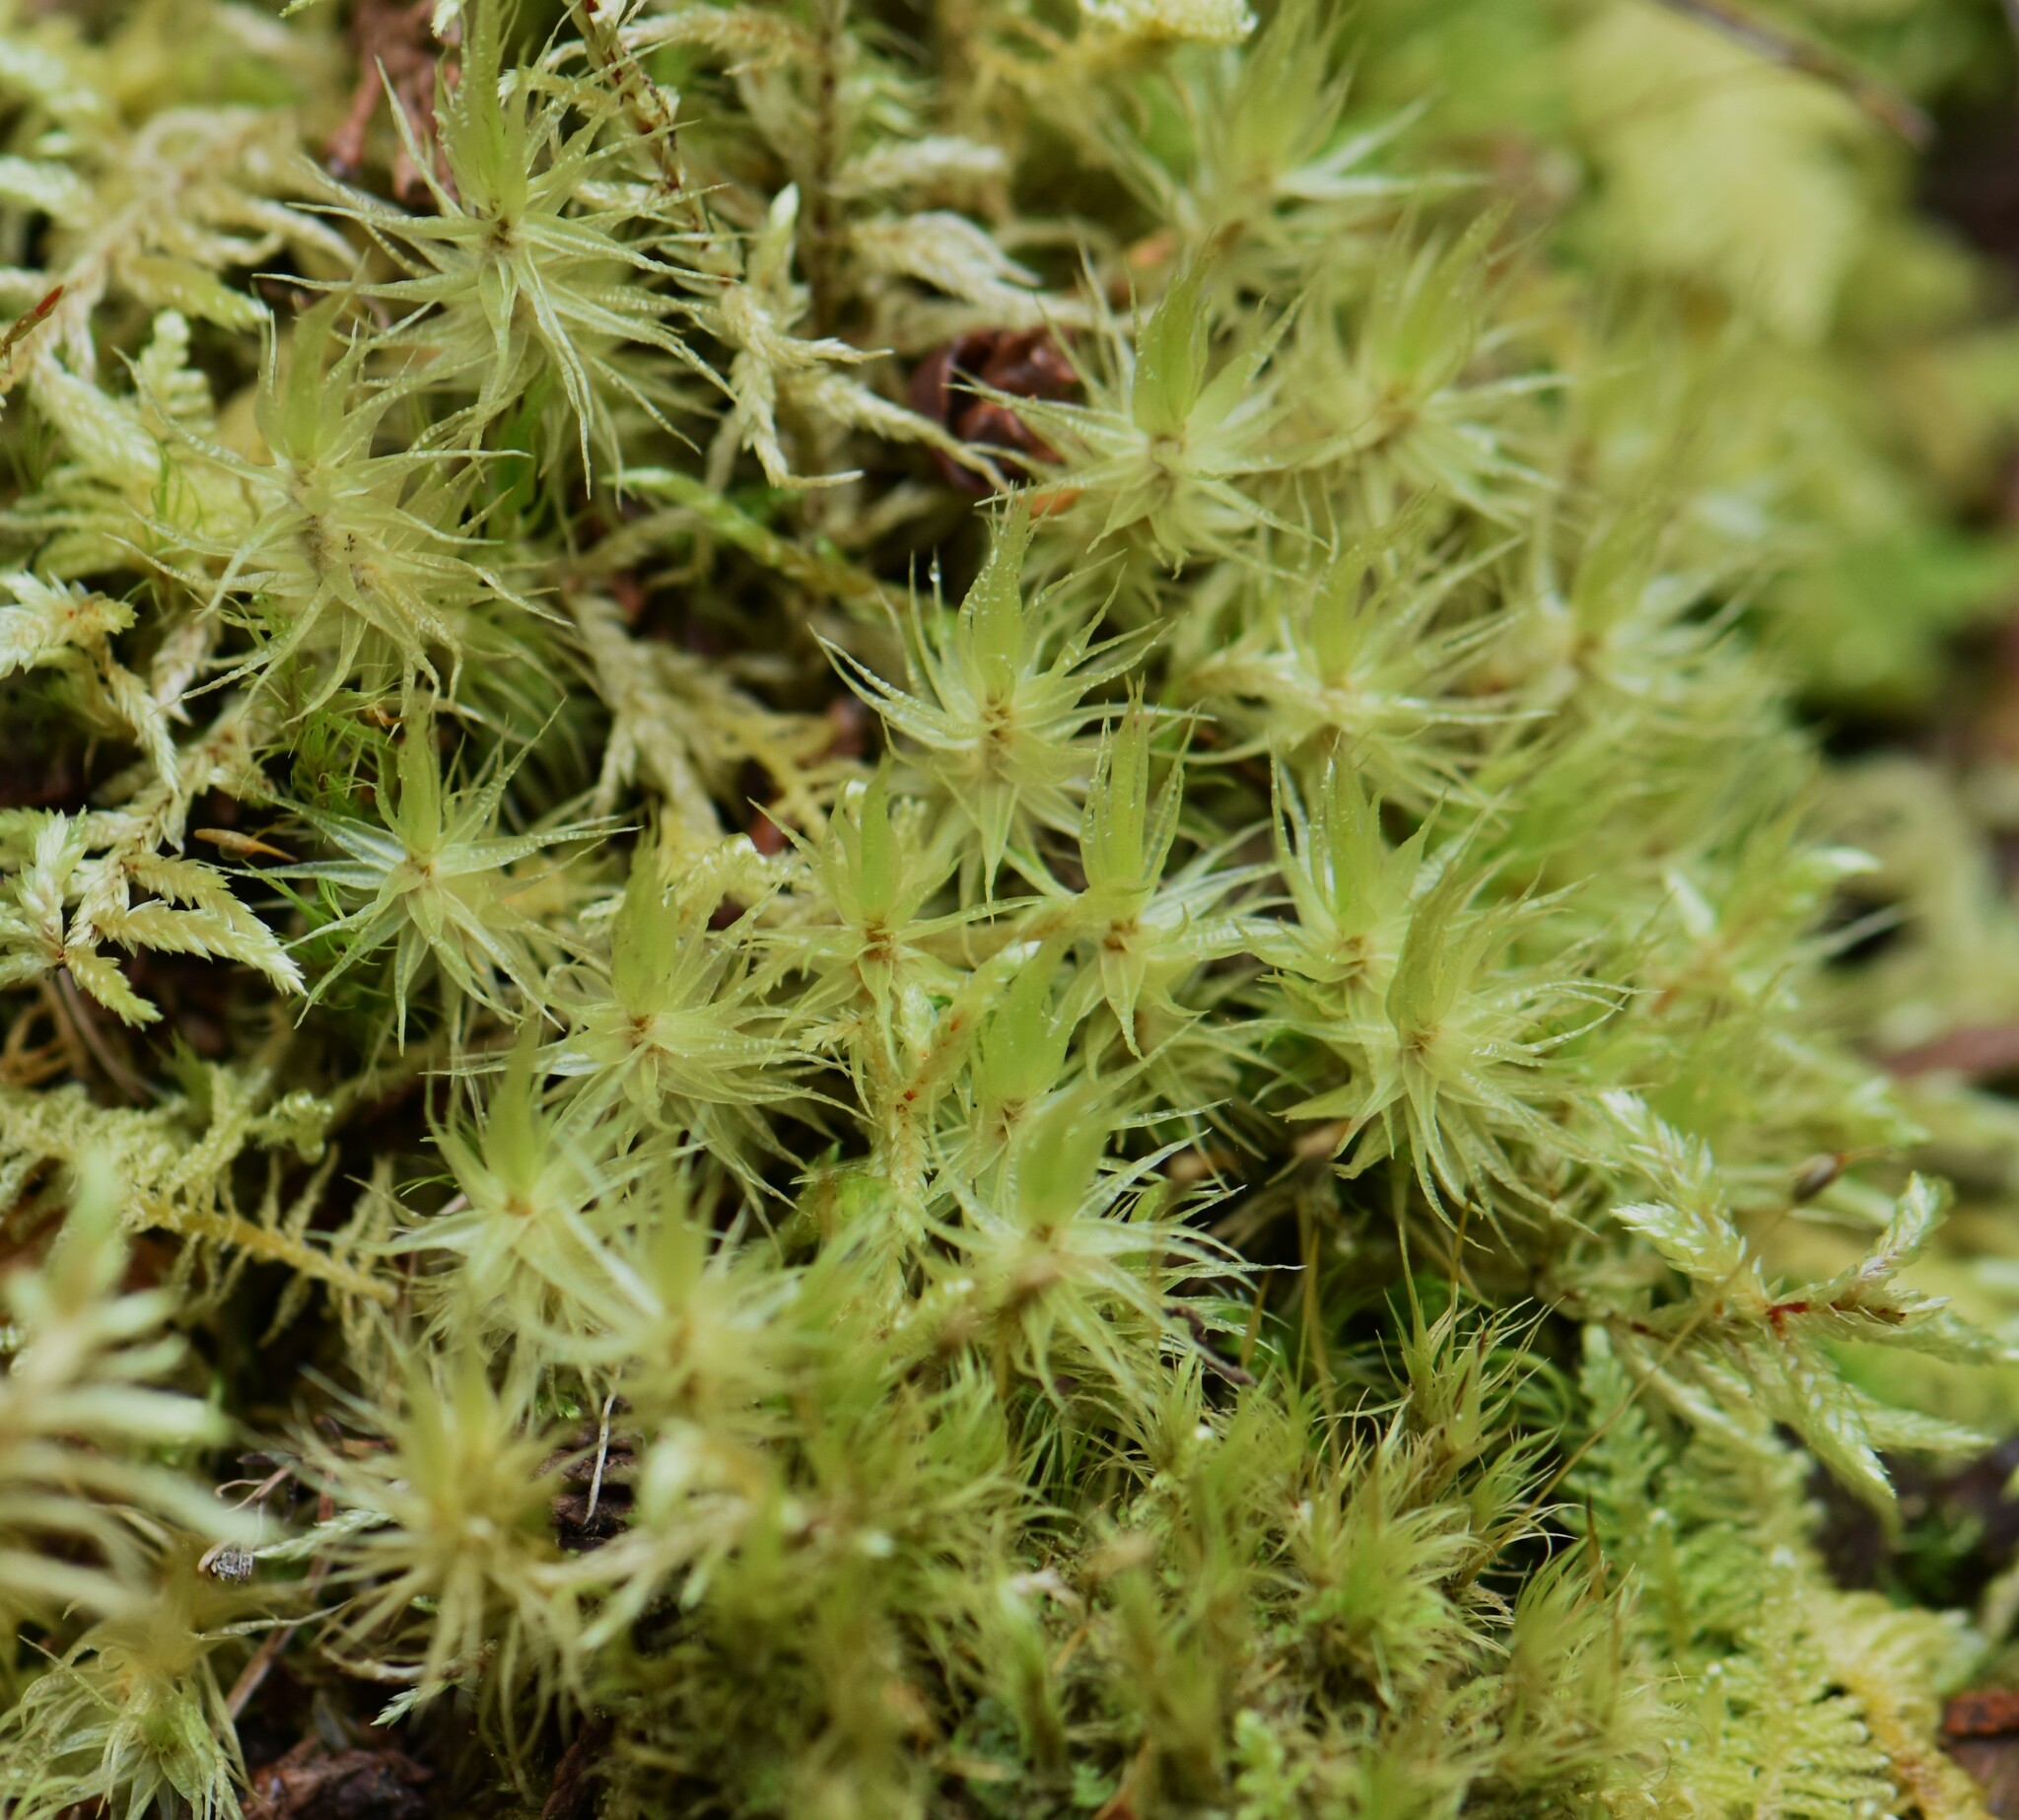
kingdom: Plantae
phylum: Bryophyta
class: Bryopsida
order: Dicranales
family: Dicranaceae
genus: Dicranum
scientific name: Dicranum polysetum
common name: Rugose fork-moss
